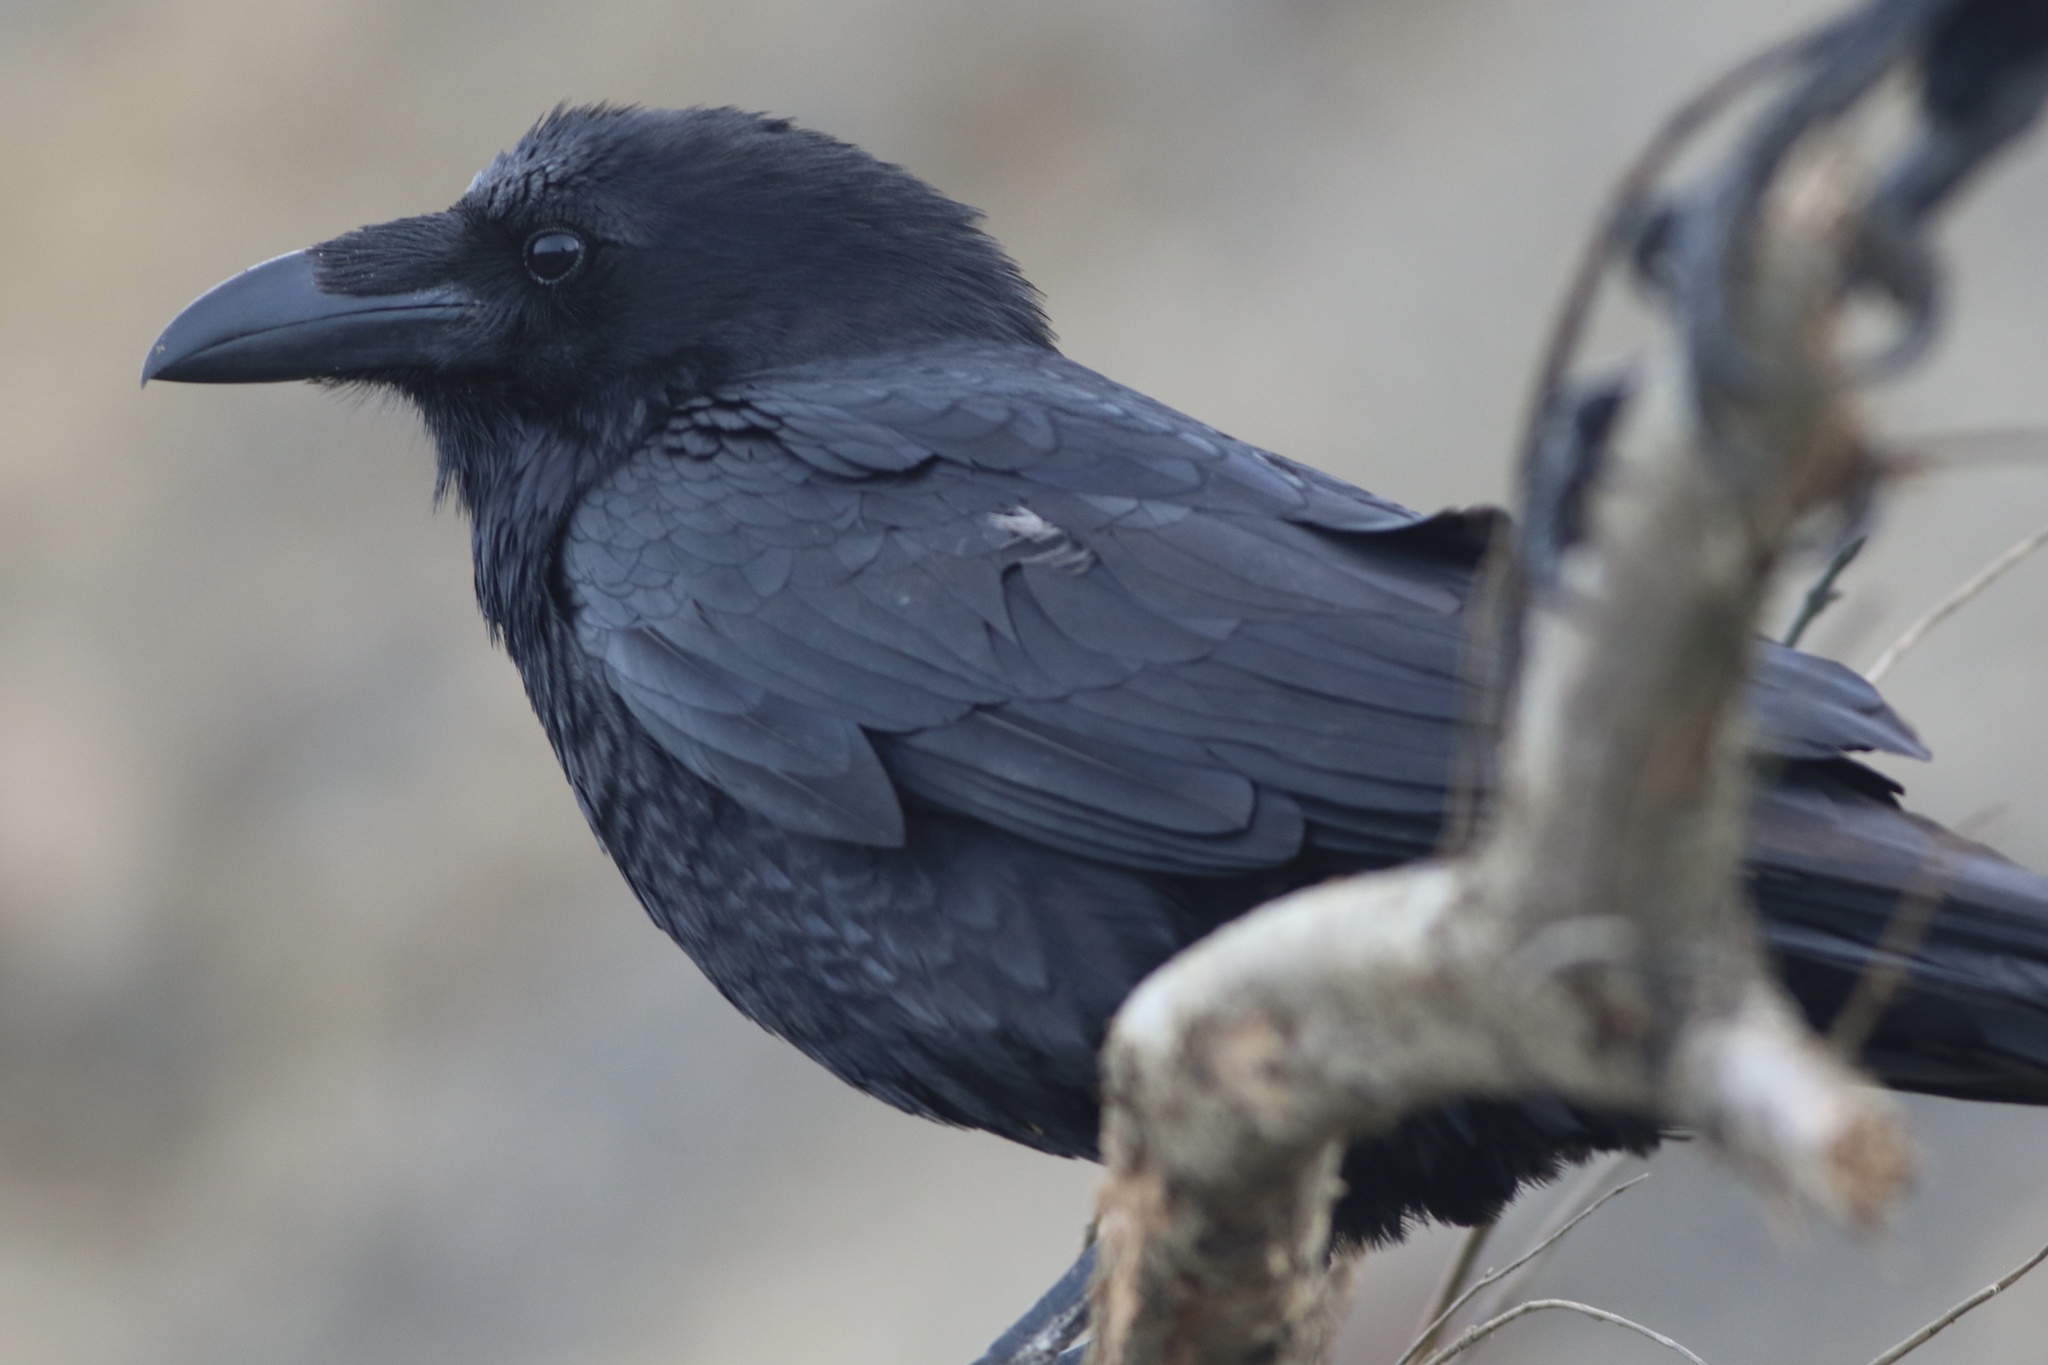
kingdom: Animalia
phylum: Chordata
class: Aves
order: Passeriformes
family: Corvidae
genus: Corvus
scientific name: Corvus corax
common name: Common raven
